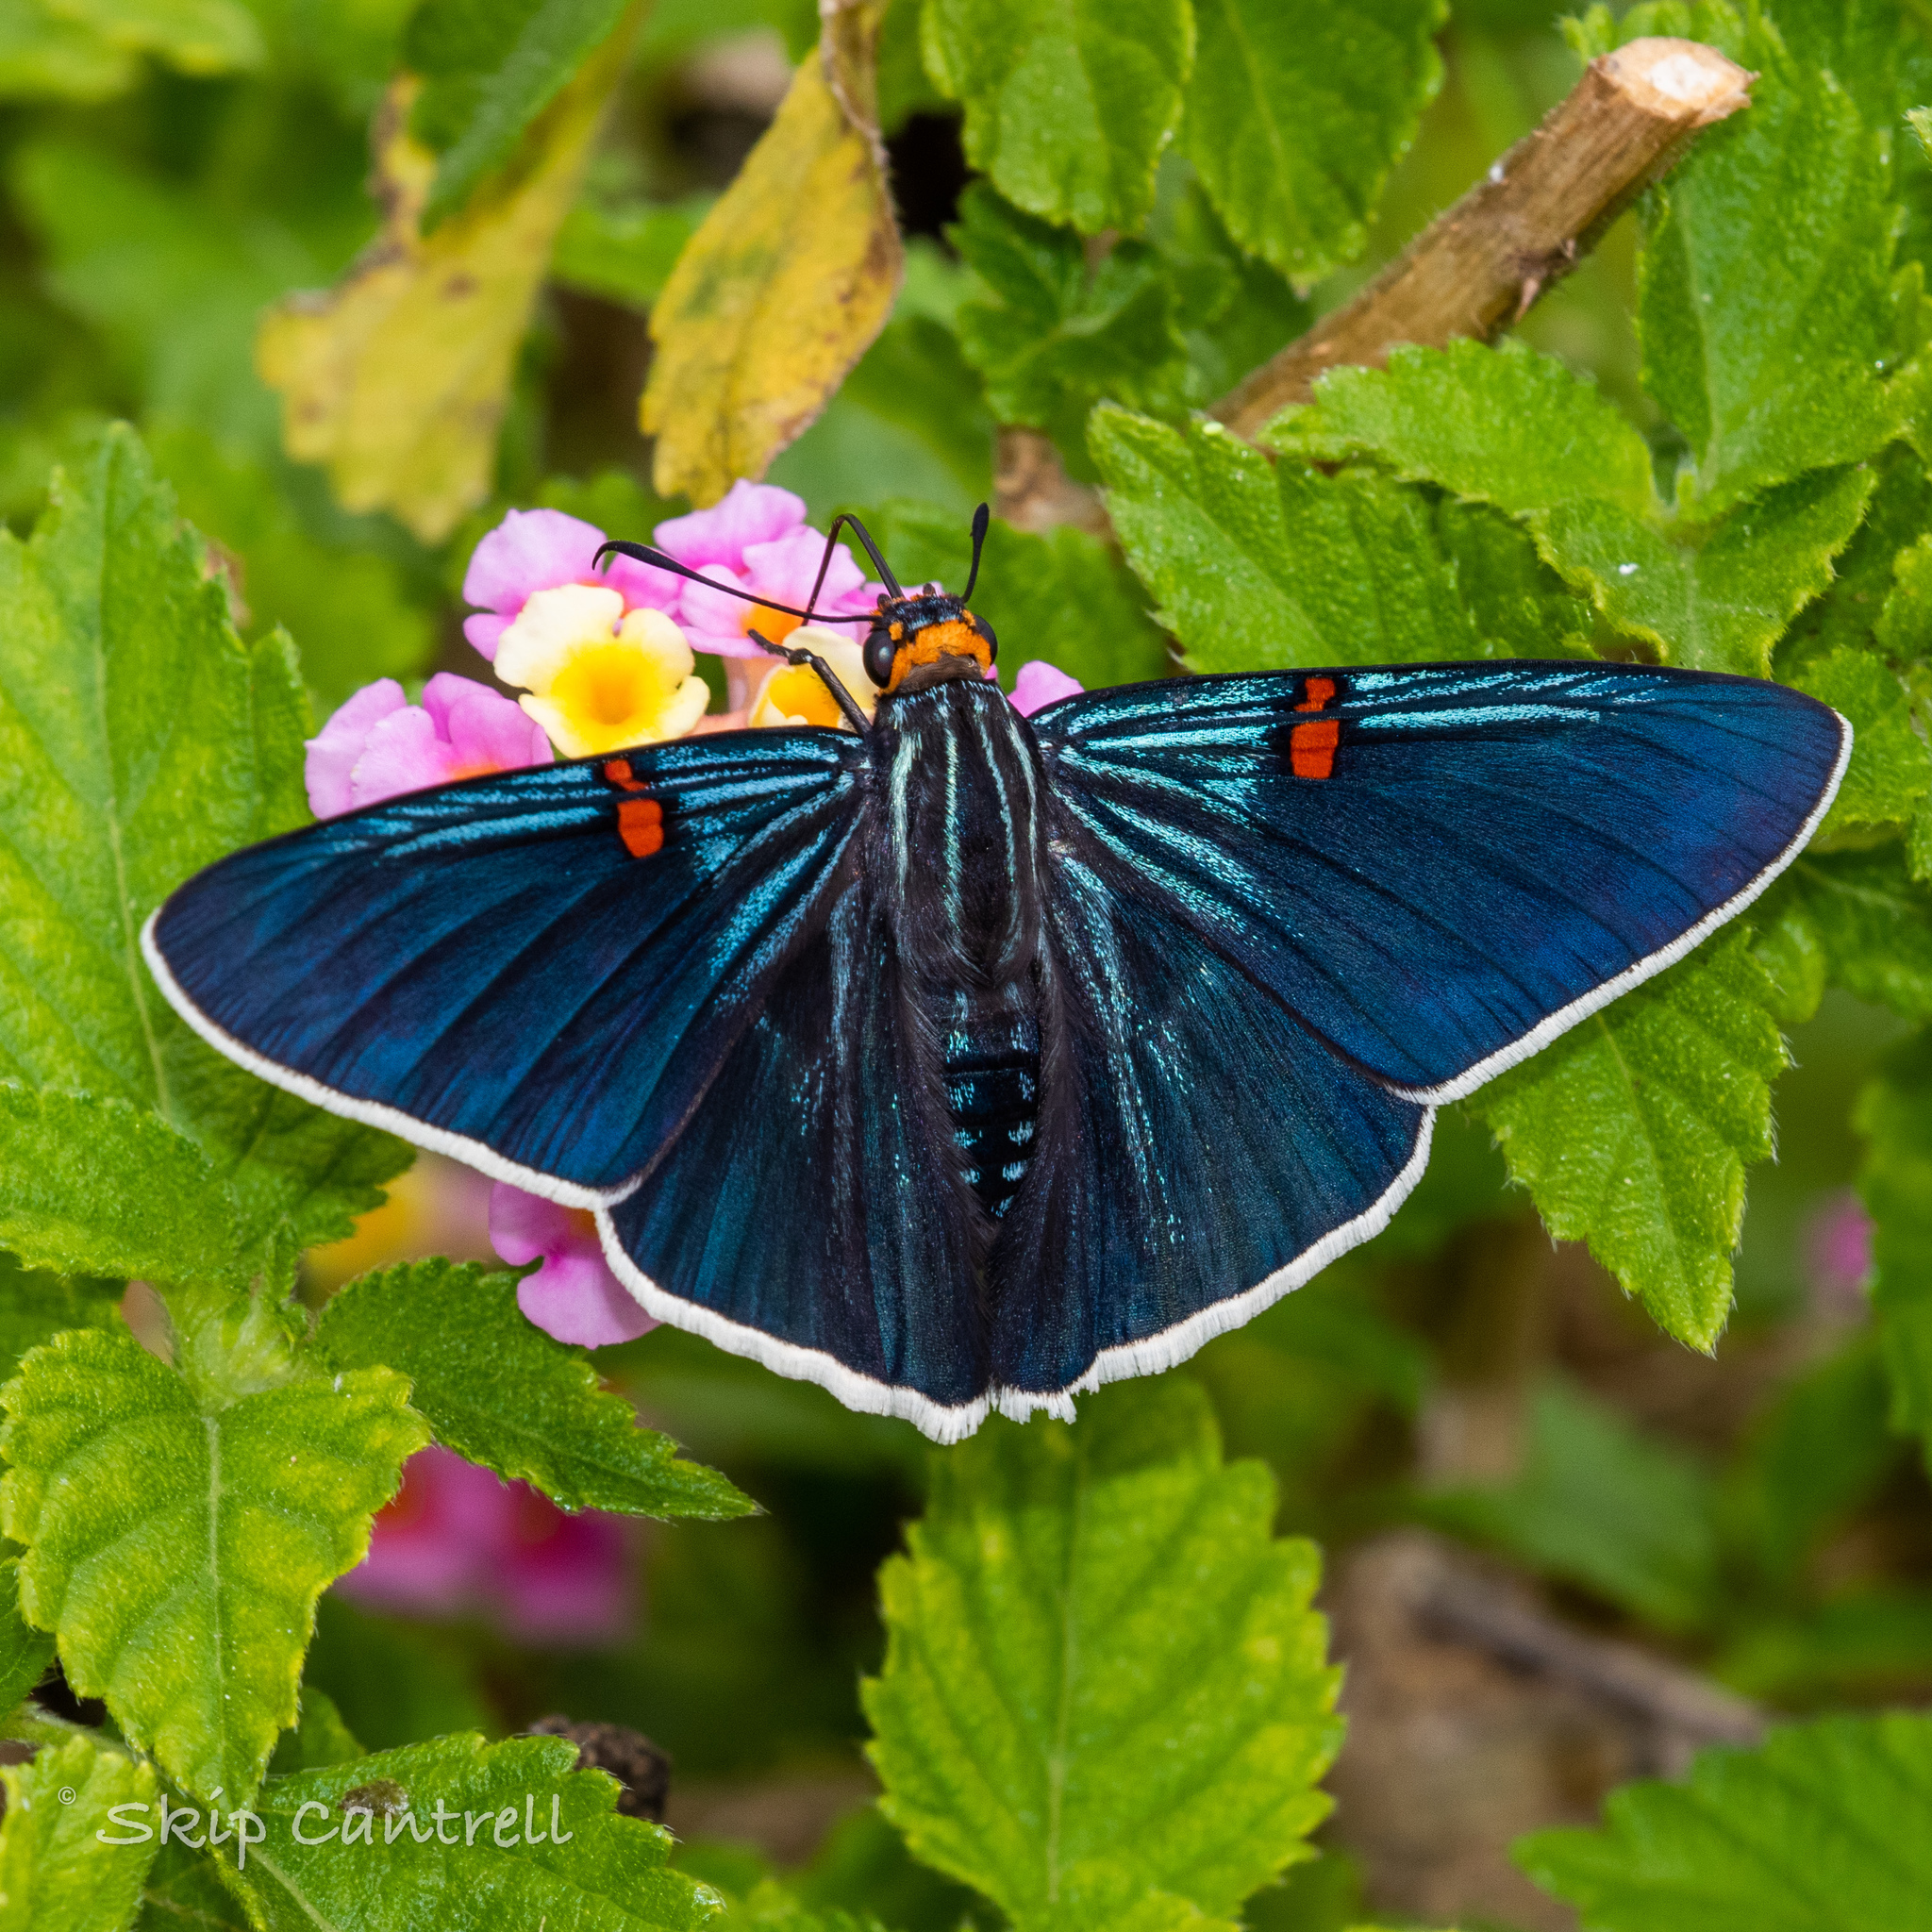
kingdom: Animalia
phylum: Arthropoda
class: Insecta
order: Lepidoptera
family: Hesperiidae
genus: Phocides
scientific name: Phocides lilea
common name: Guava skipper
